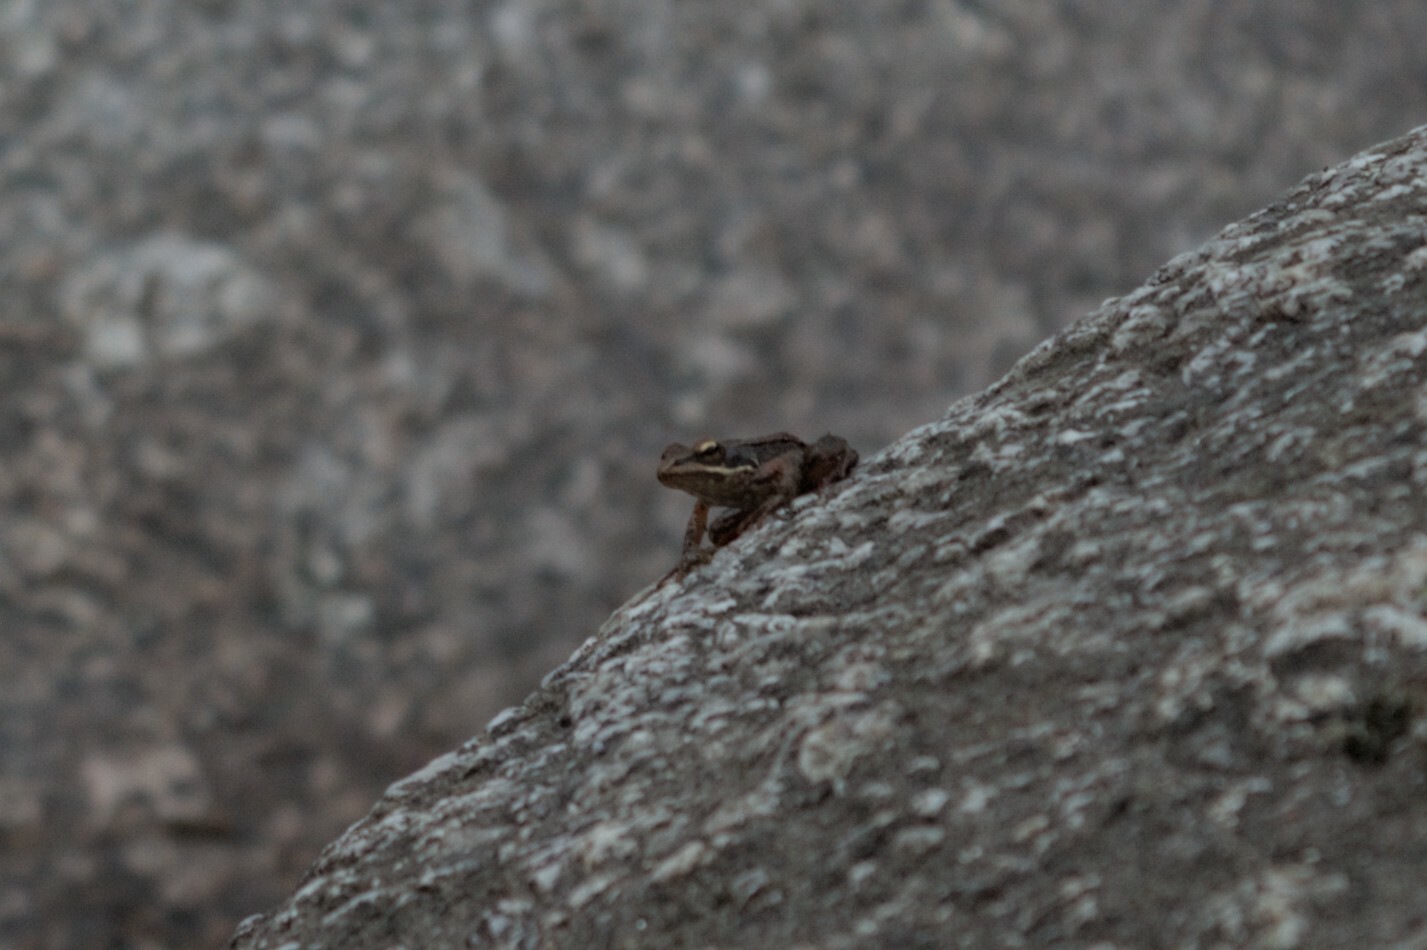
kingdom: Animalia
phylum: Chordata
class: Amphibia
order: Anura
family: Ranidae
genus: Rana
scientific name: Rana iberica
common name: Iberian frog
